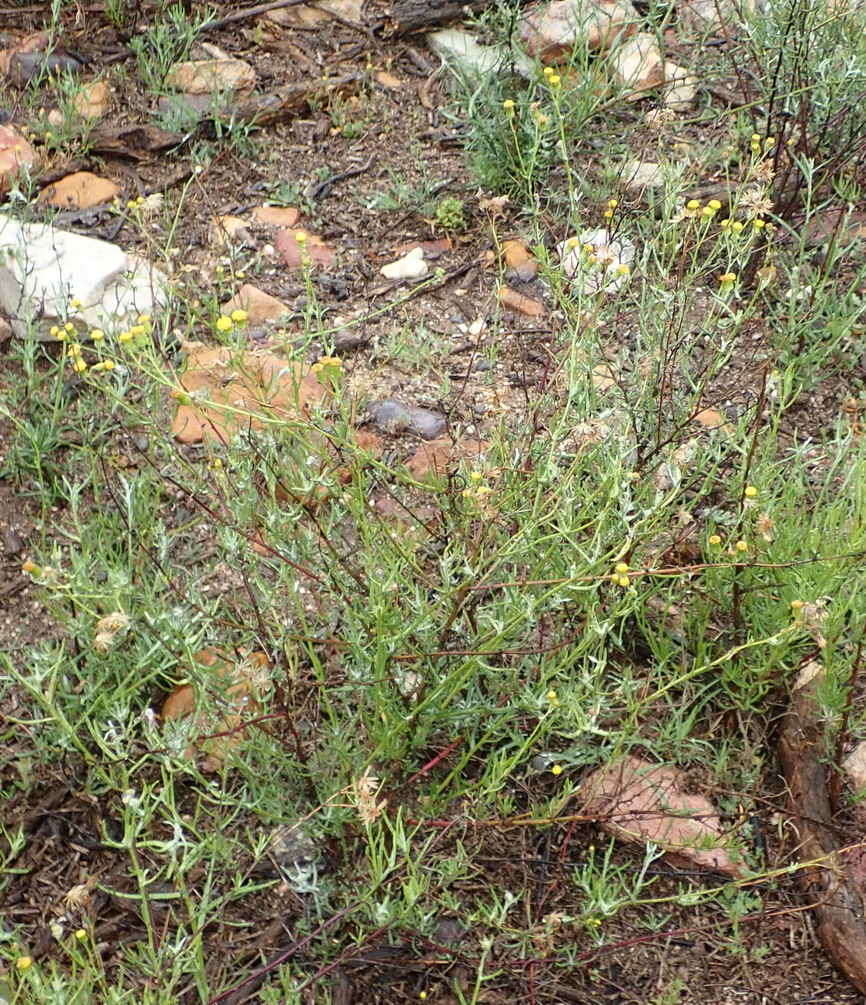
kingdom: Plantae
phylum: Tracheophyta
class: Magnoliopsida
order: Asterales
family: Asteraceae
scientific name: Asteraceae
